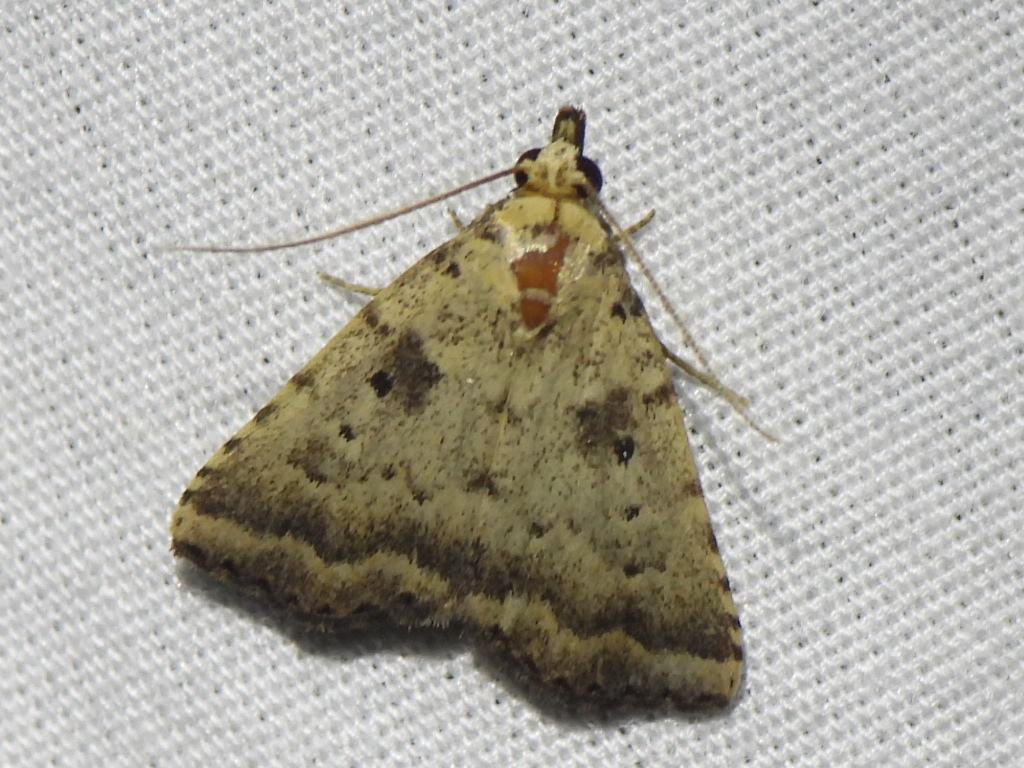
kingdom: Animalia
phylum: Arthropoda
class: Insecta
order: Lepidoptera
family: Erebidae
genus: Arugisa
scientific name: Arugisa lutea
